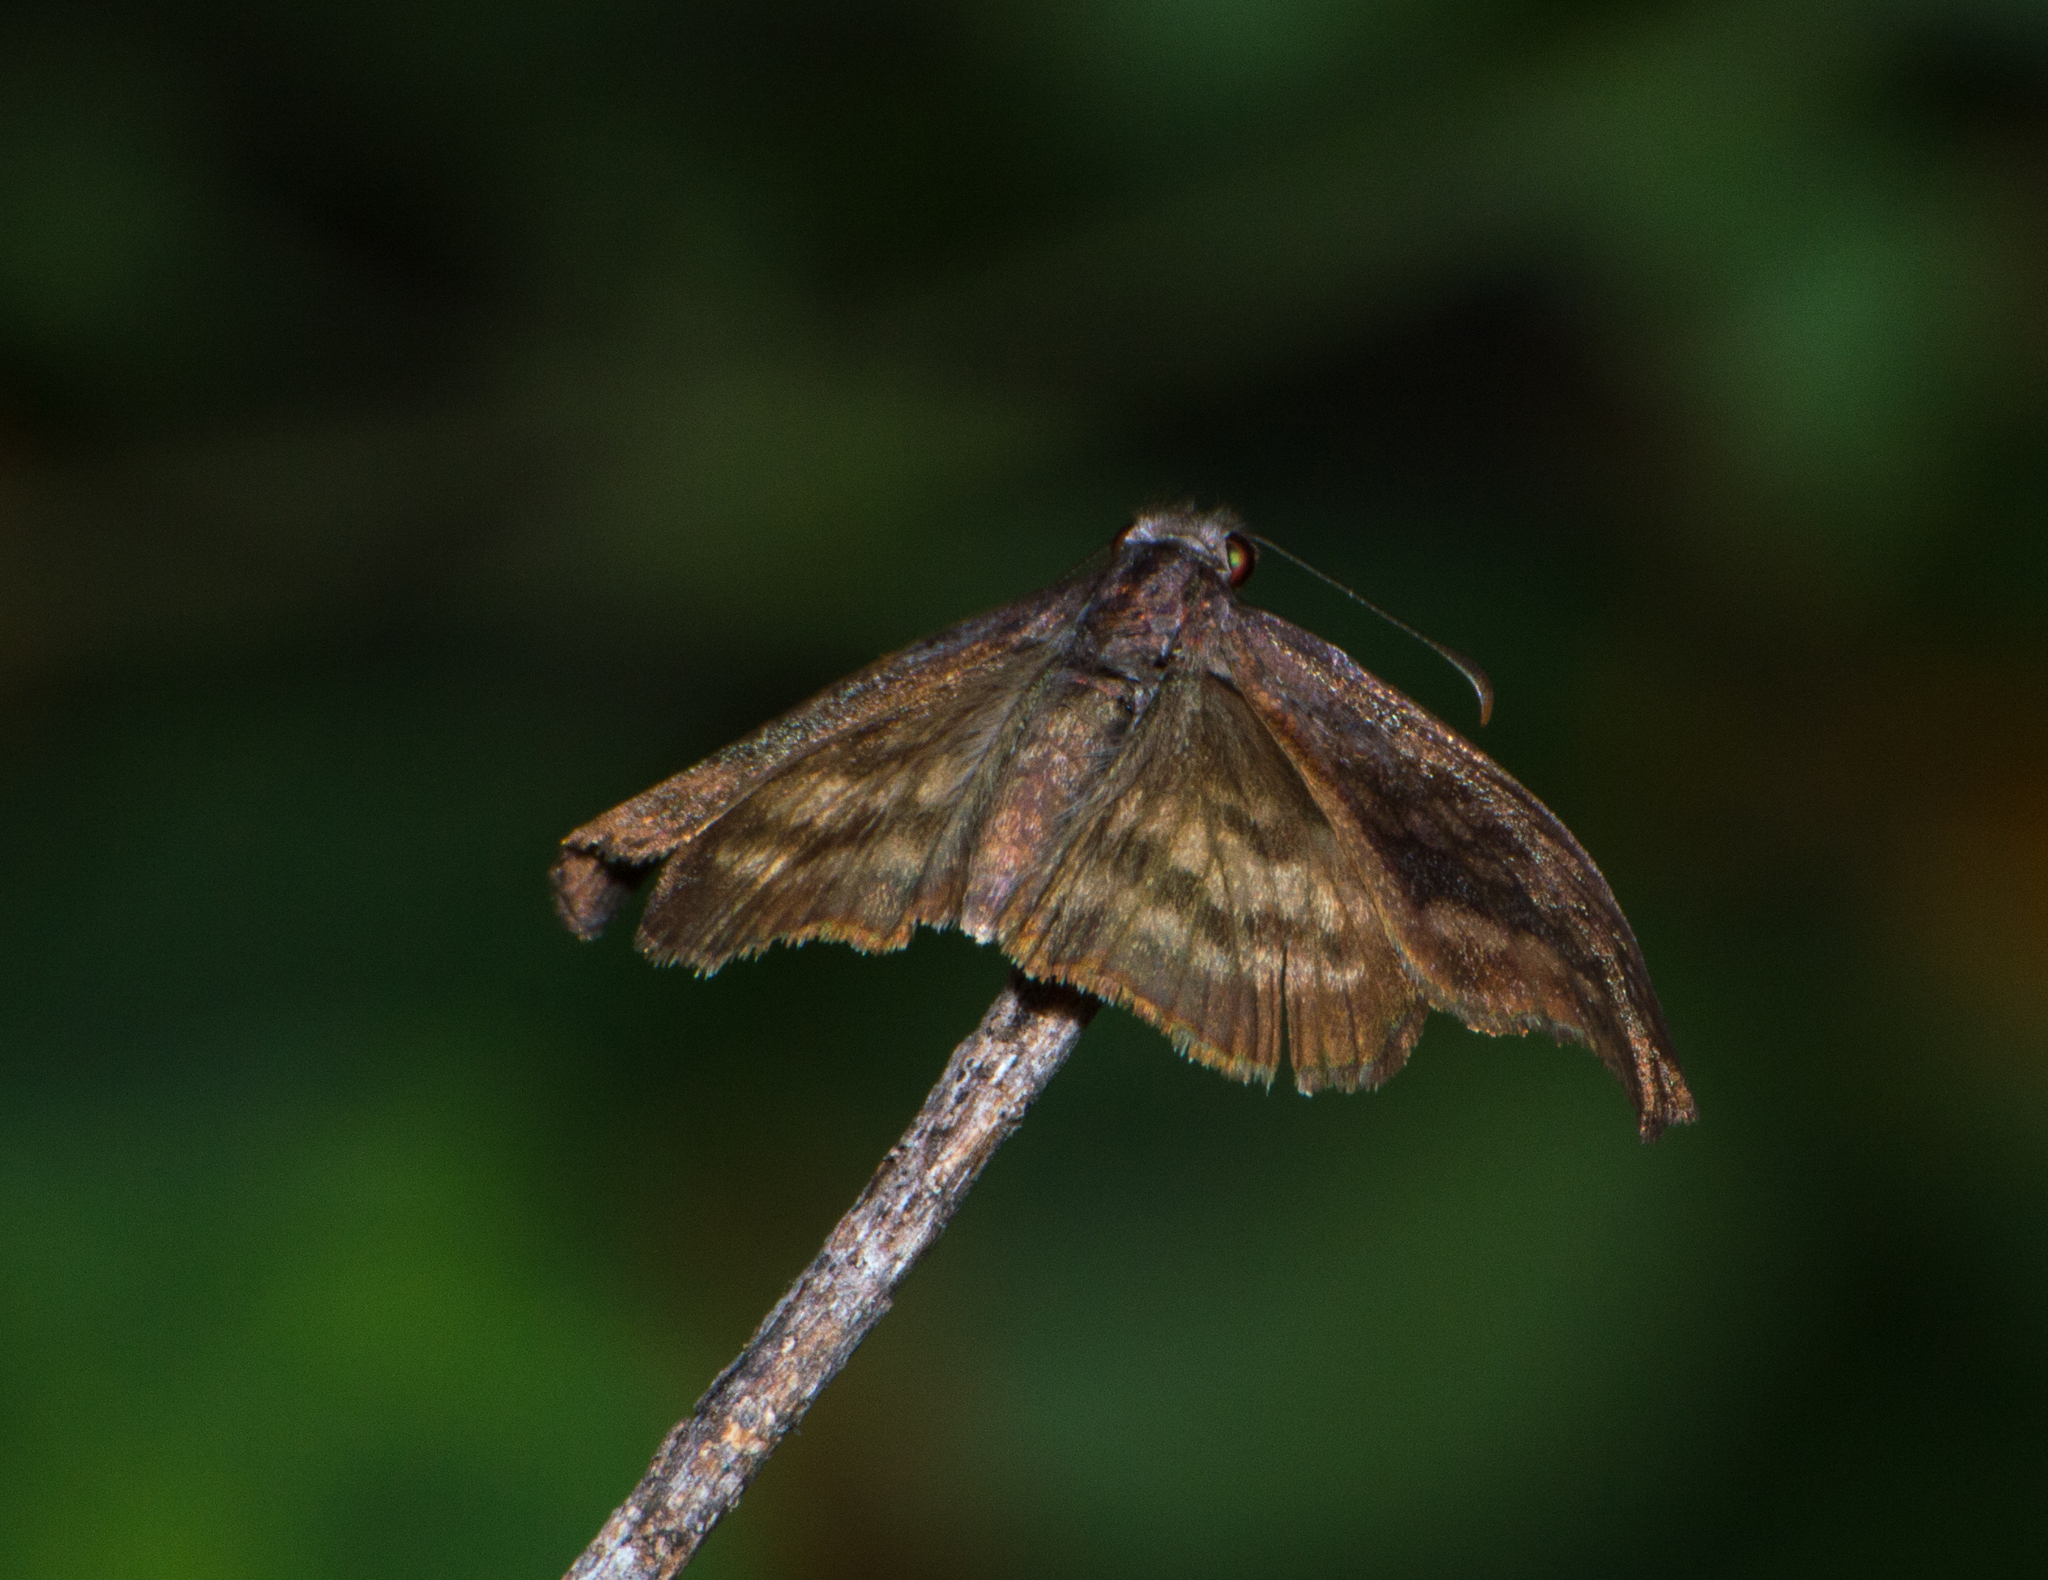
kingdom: Animalia
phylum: Arthropoda
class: Insecta
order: Lepidoptera
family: Hesperiidae
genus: Theagenes
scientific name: Theagenes dichrous
